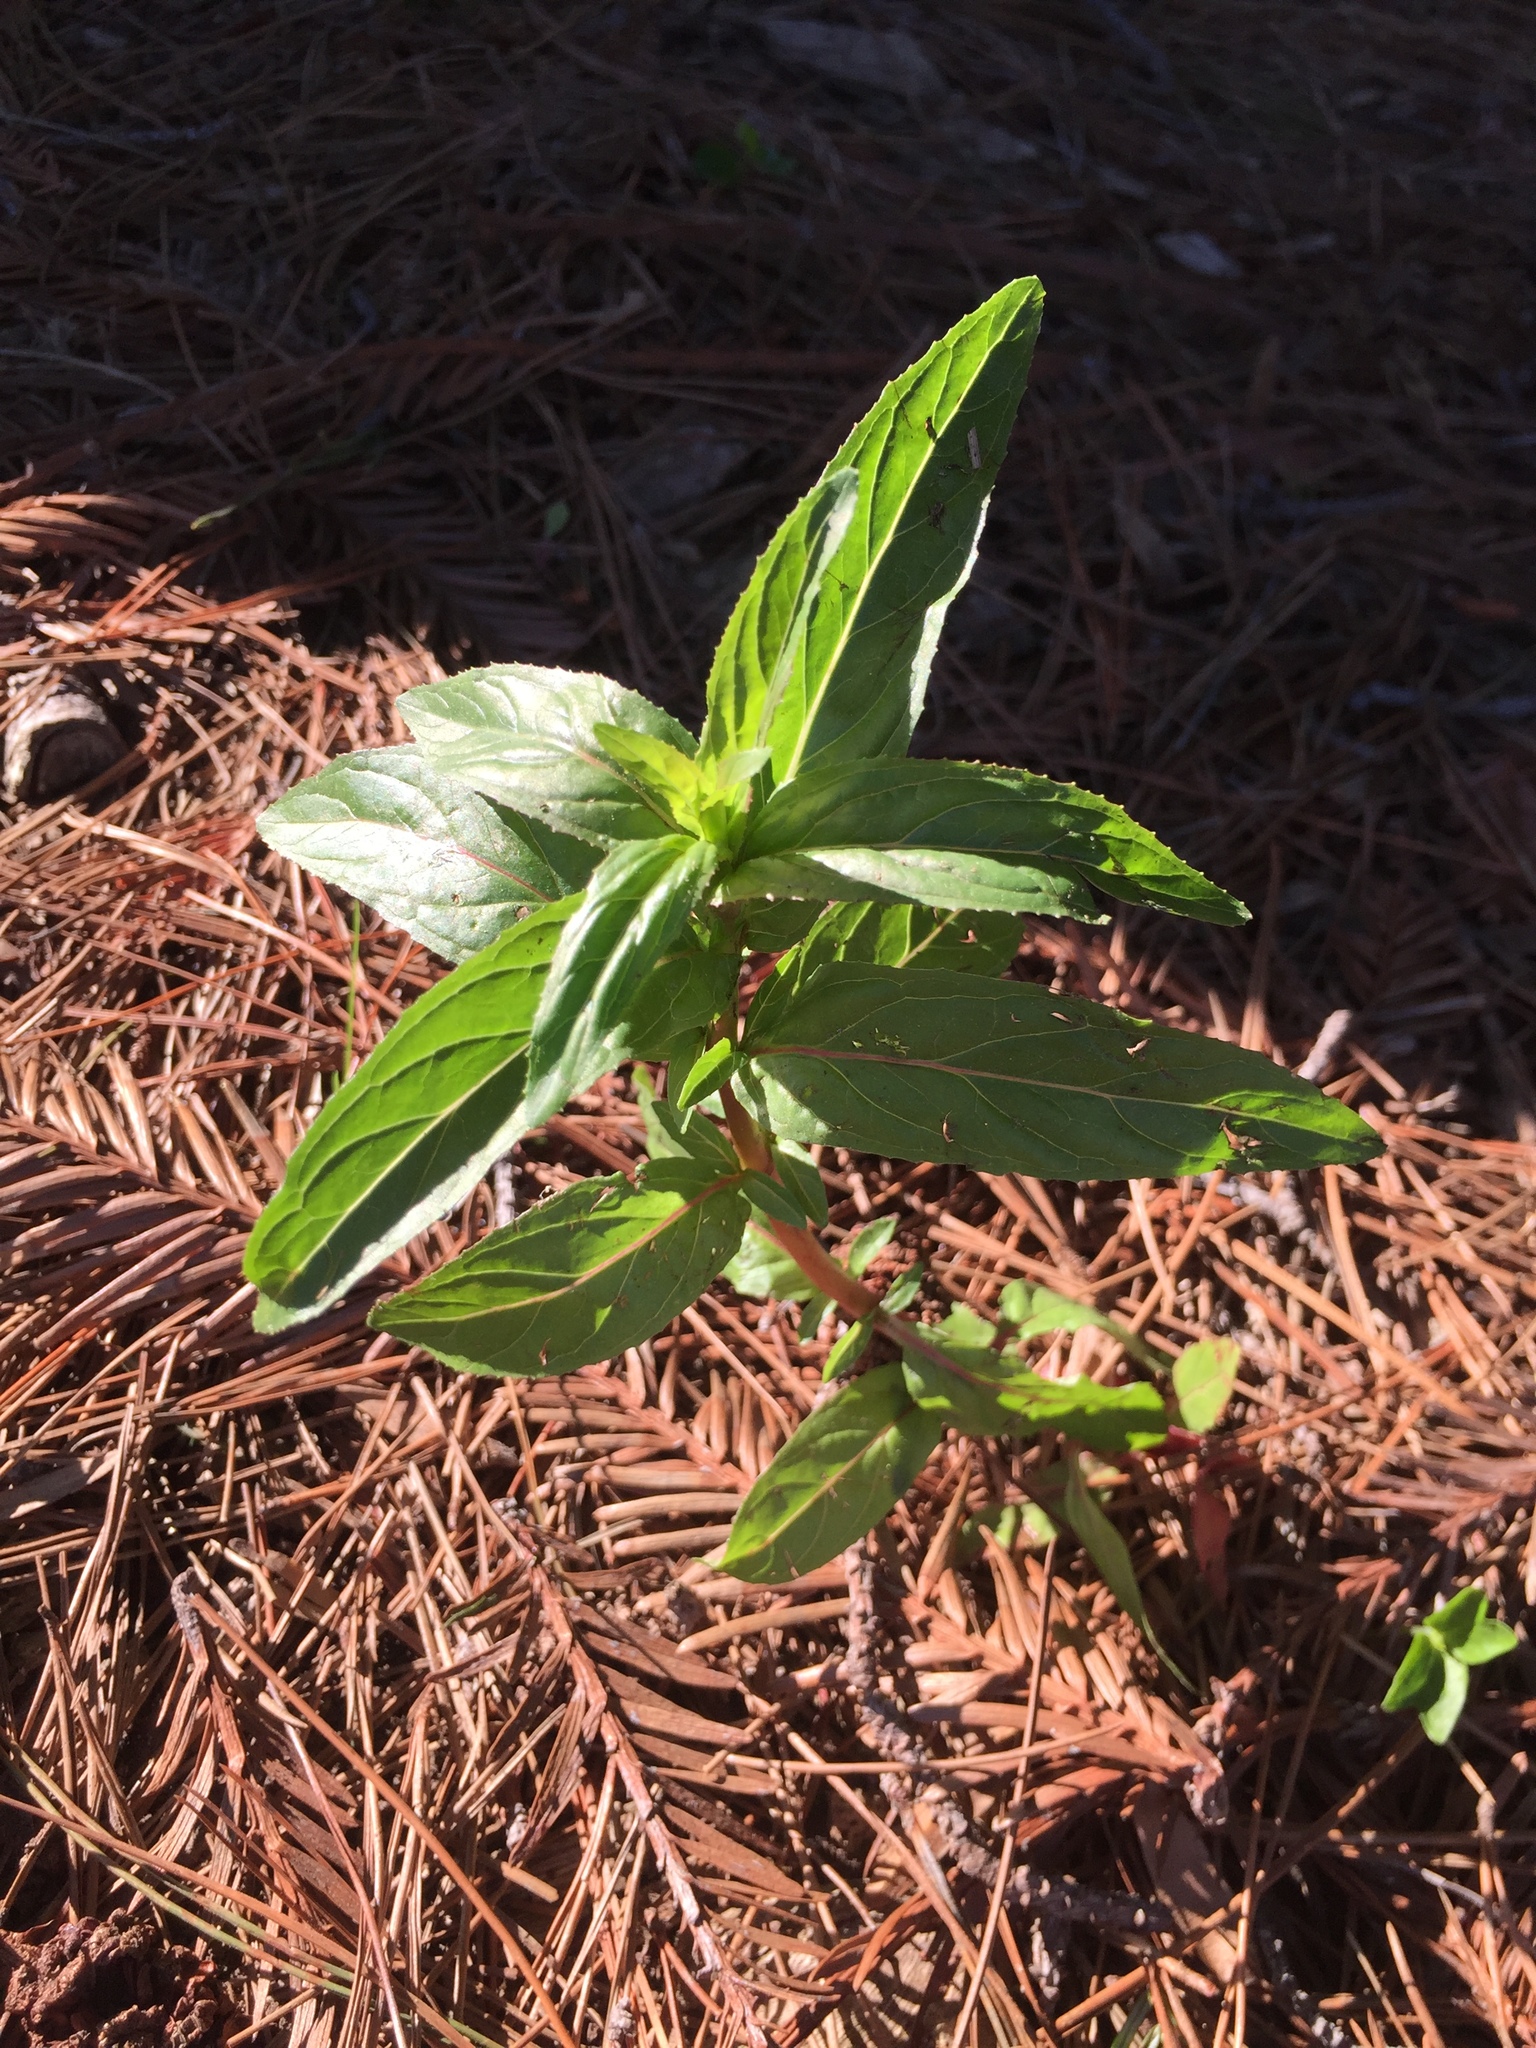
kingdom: Plantae
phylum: Tracheophyta
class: Magnoliopsida
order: Myrtales
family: Onagraceae
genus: Epilobium
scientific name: Epilobium ciliatum
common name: American willowherb
